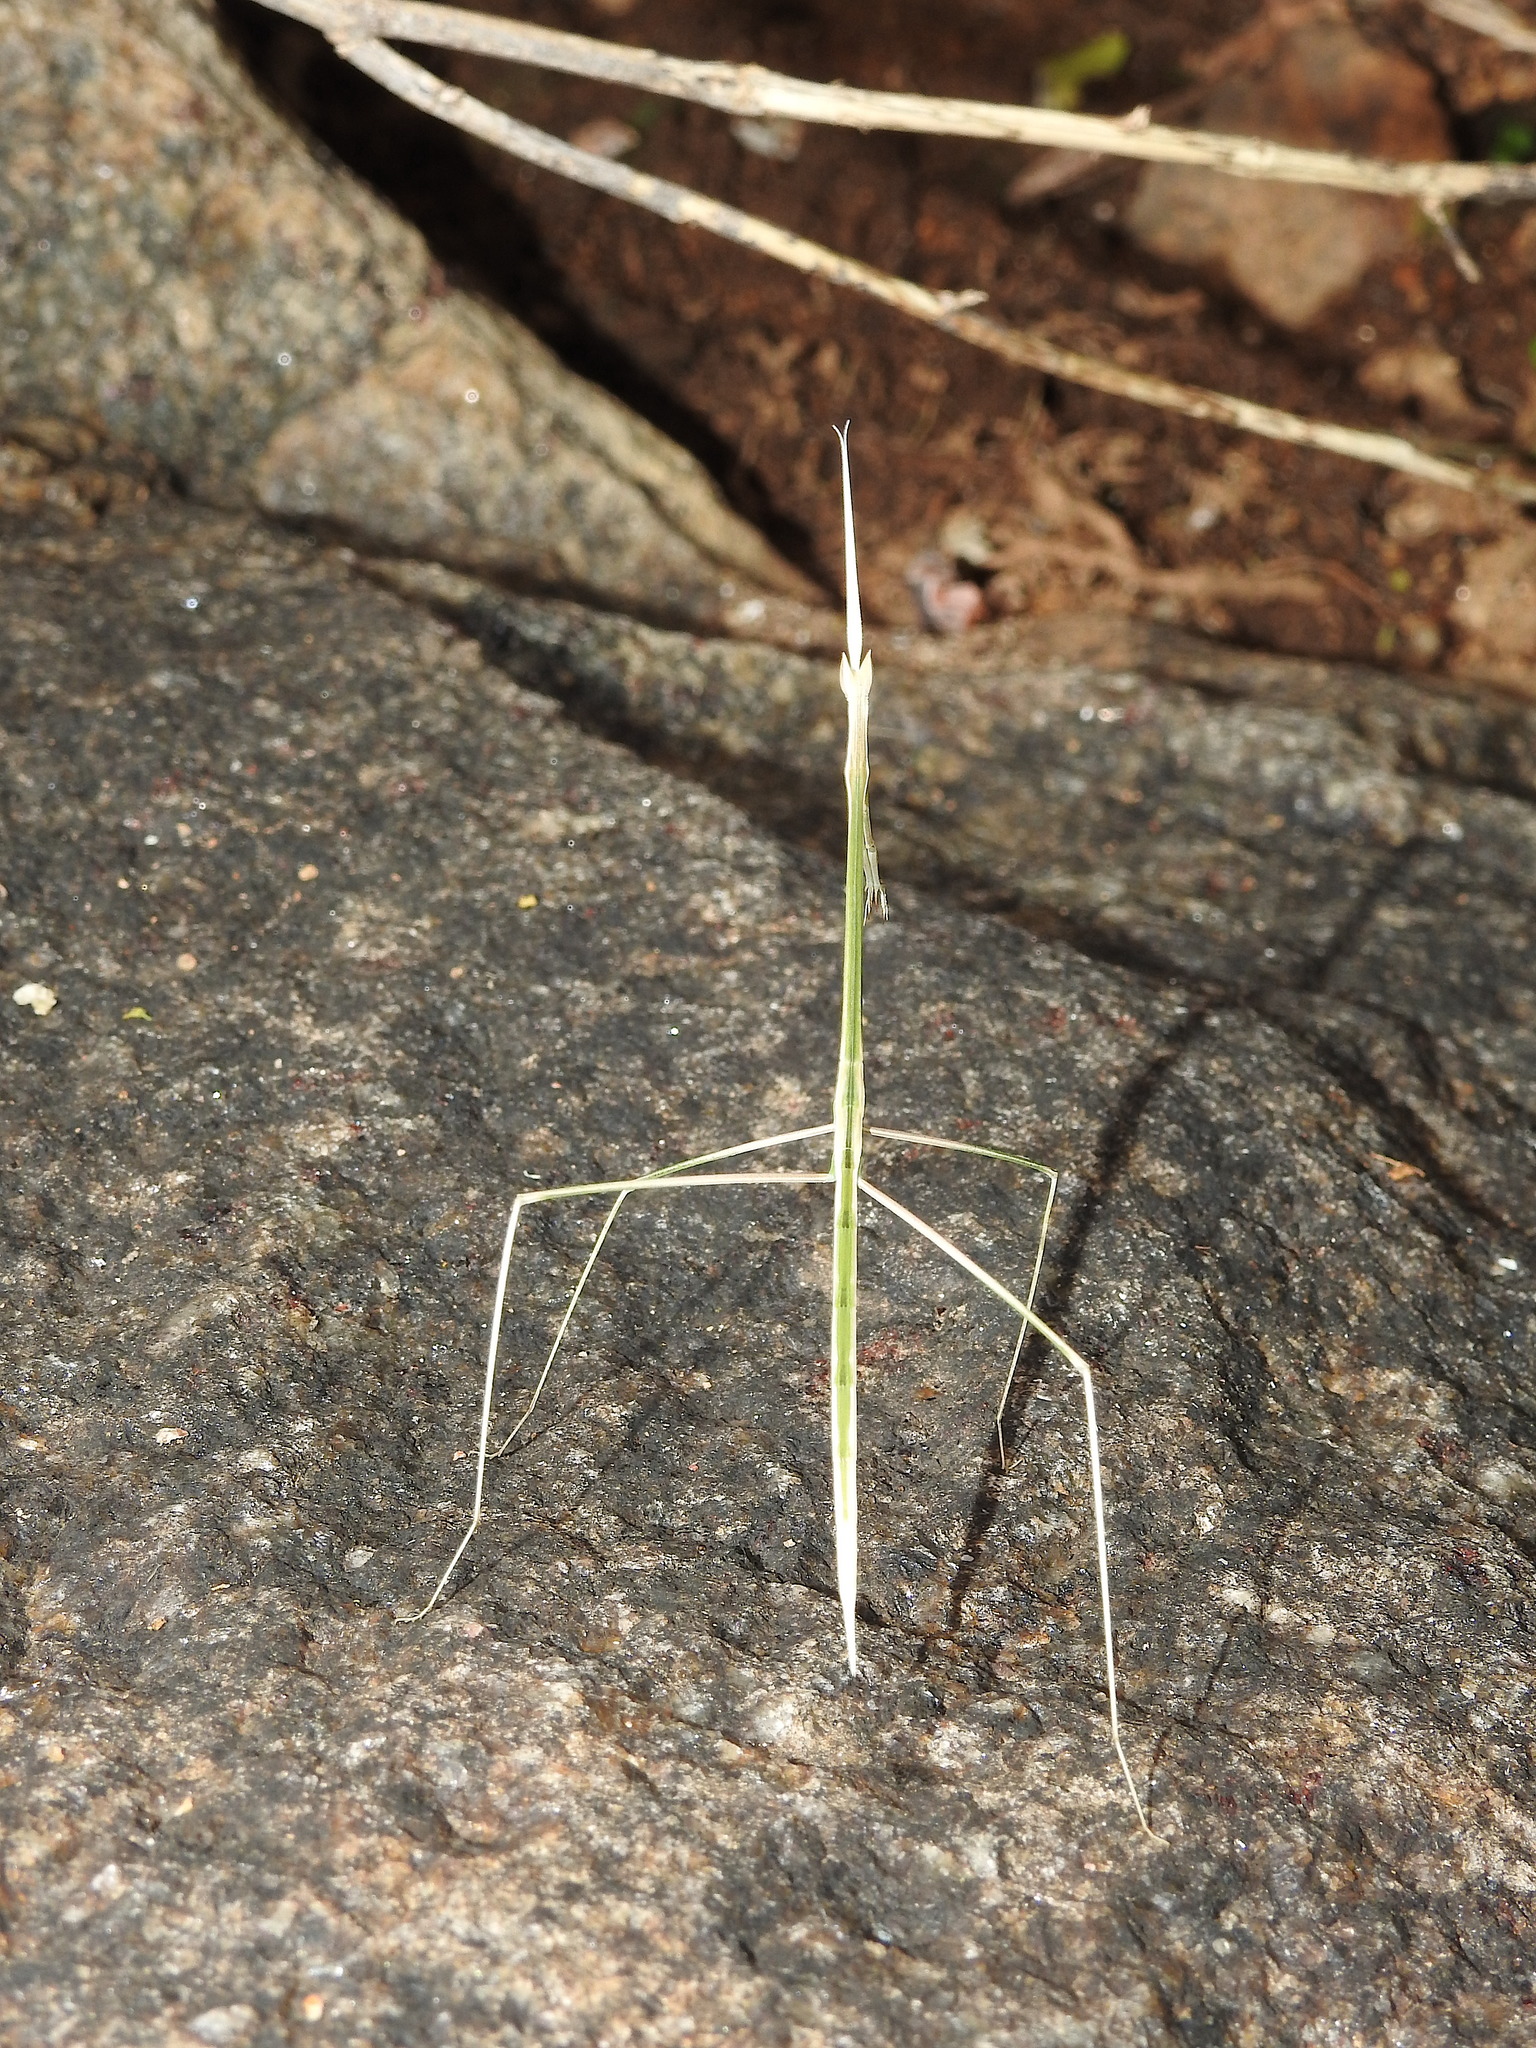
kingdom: Animalia
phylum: Arthropoda
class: Insecta
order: Mantodea
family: Eremiaphilidae
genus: Schizocephala
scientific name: Schizocephala bicornis
